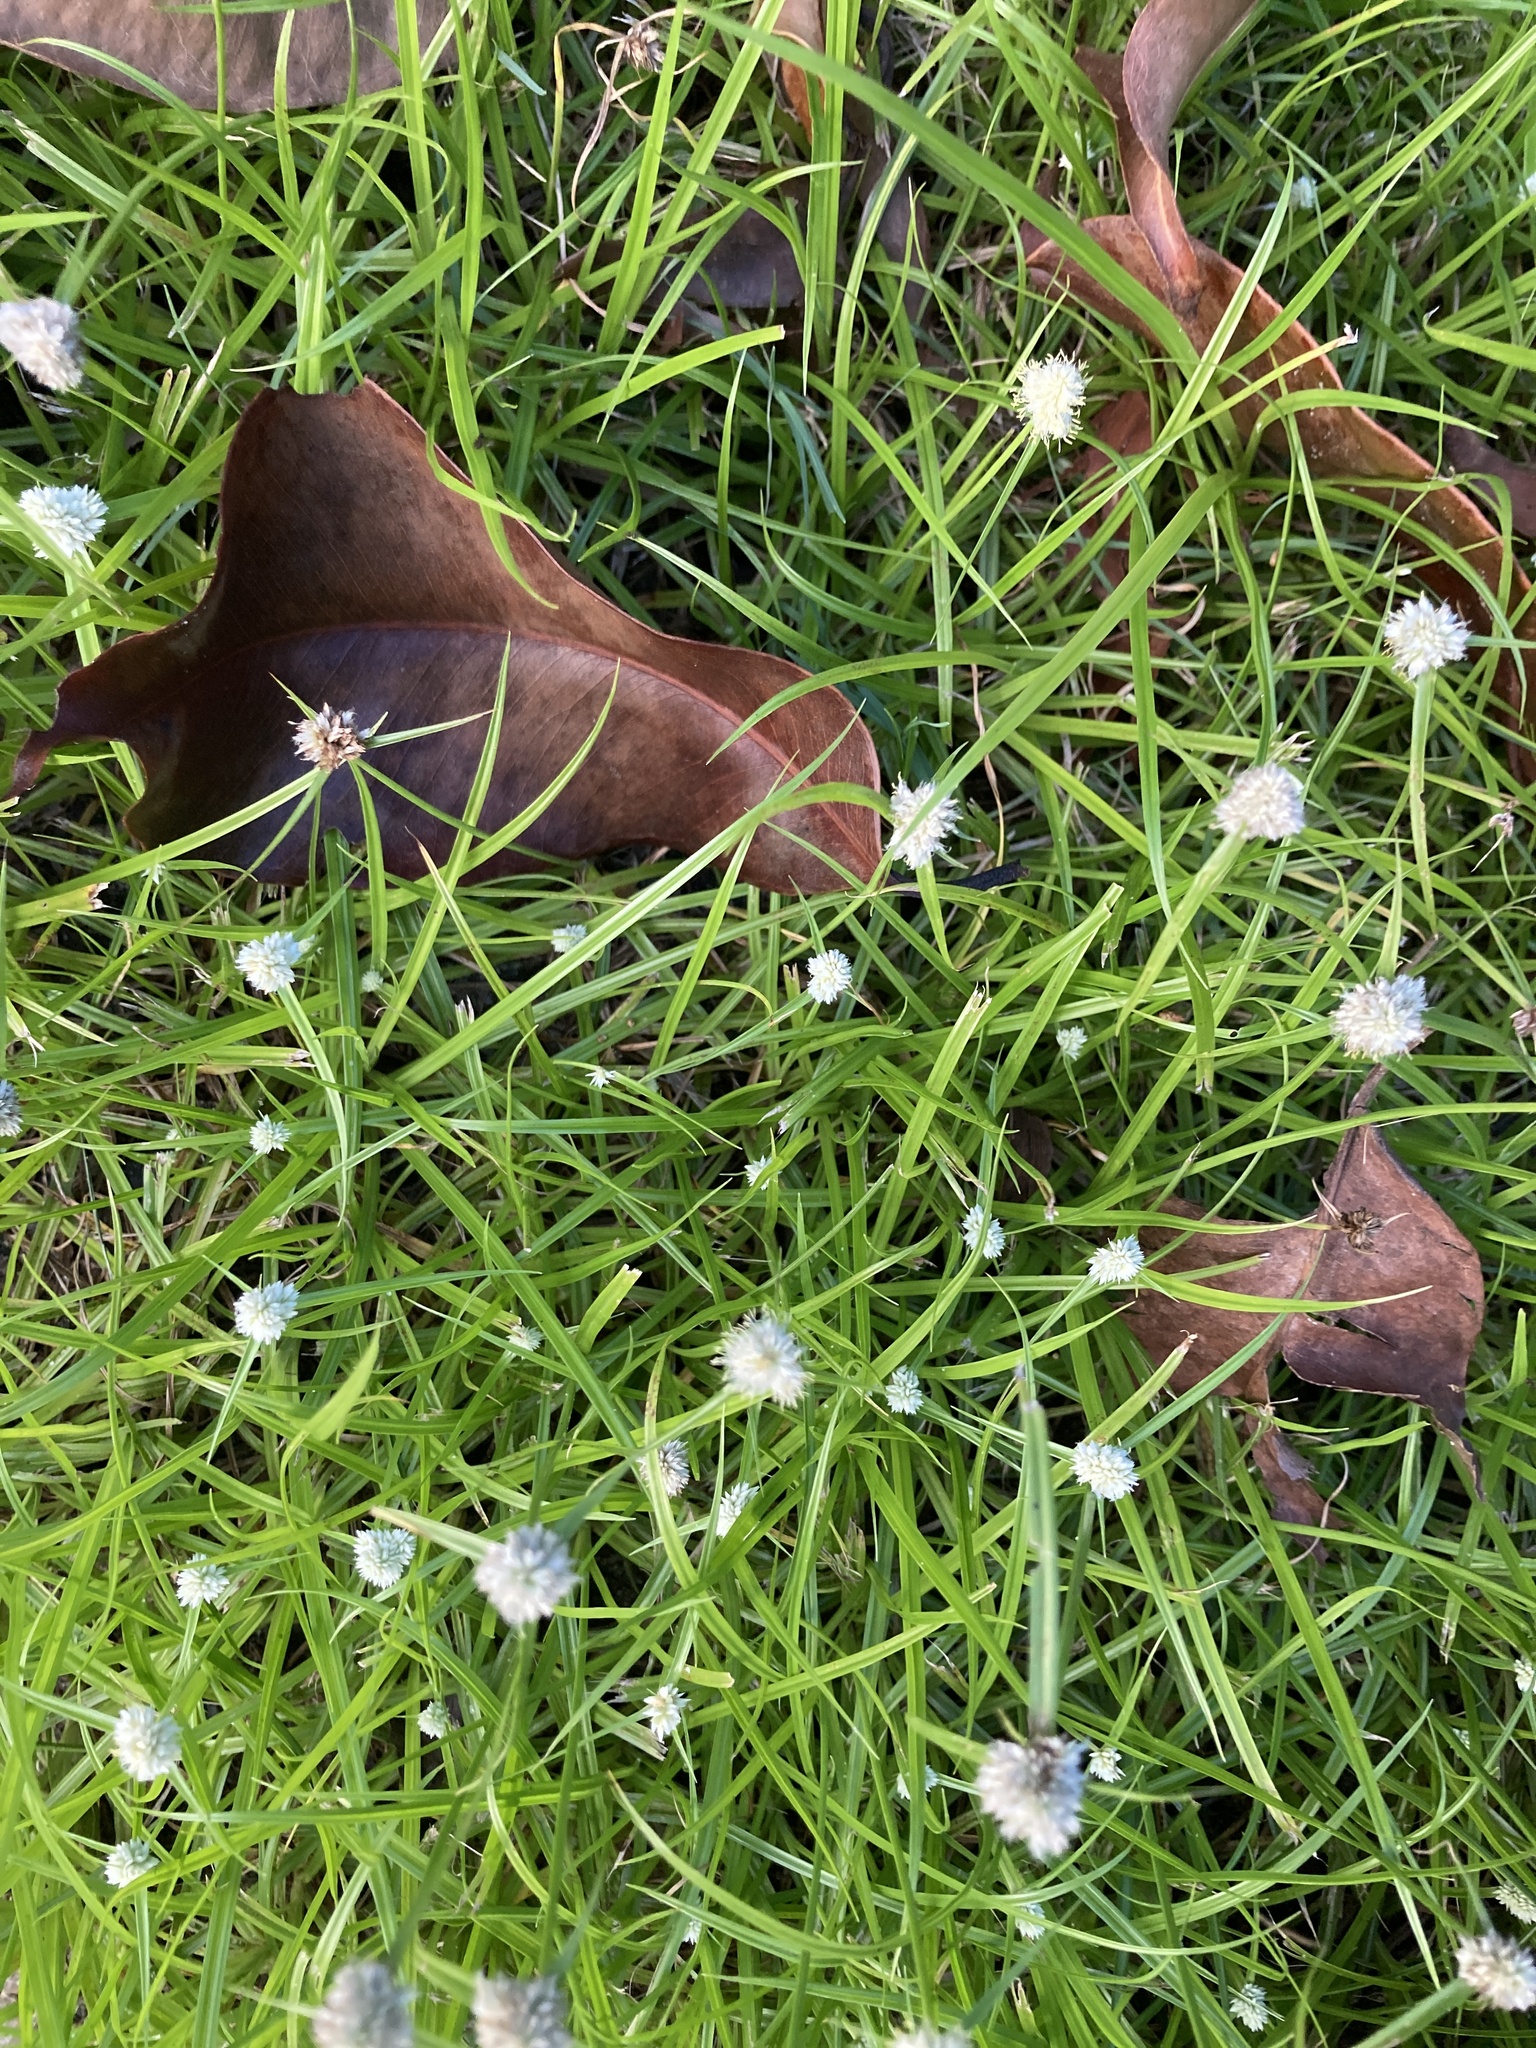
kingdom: Plantae
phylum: Tracheophyta
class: Liliopsida
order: Poales
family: Cyperaceae
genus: Cyperus
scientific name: Cyperus richardii
